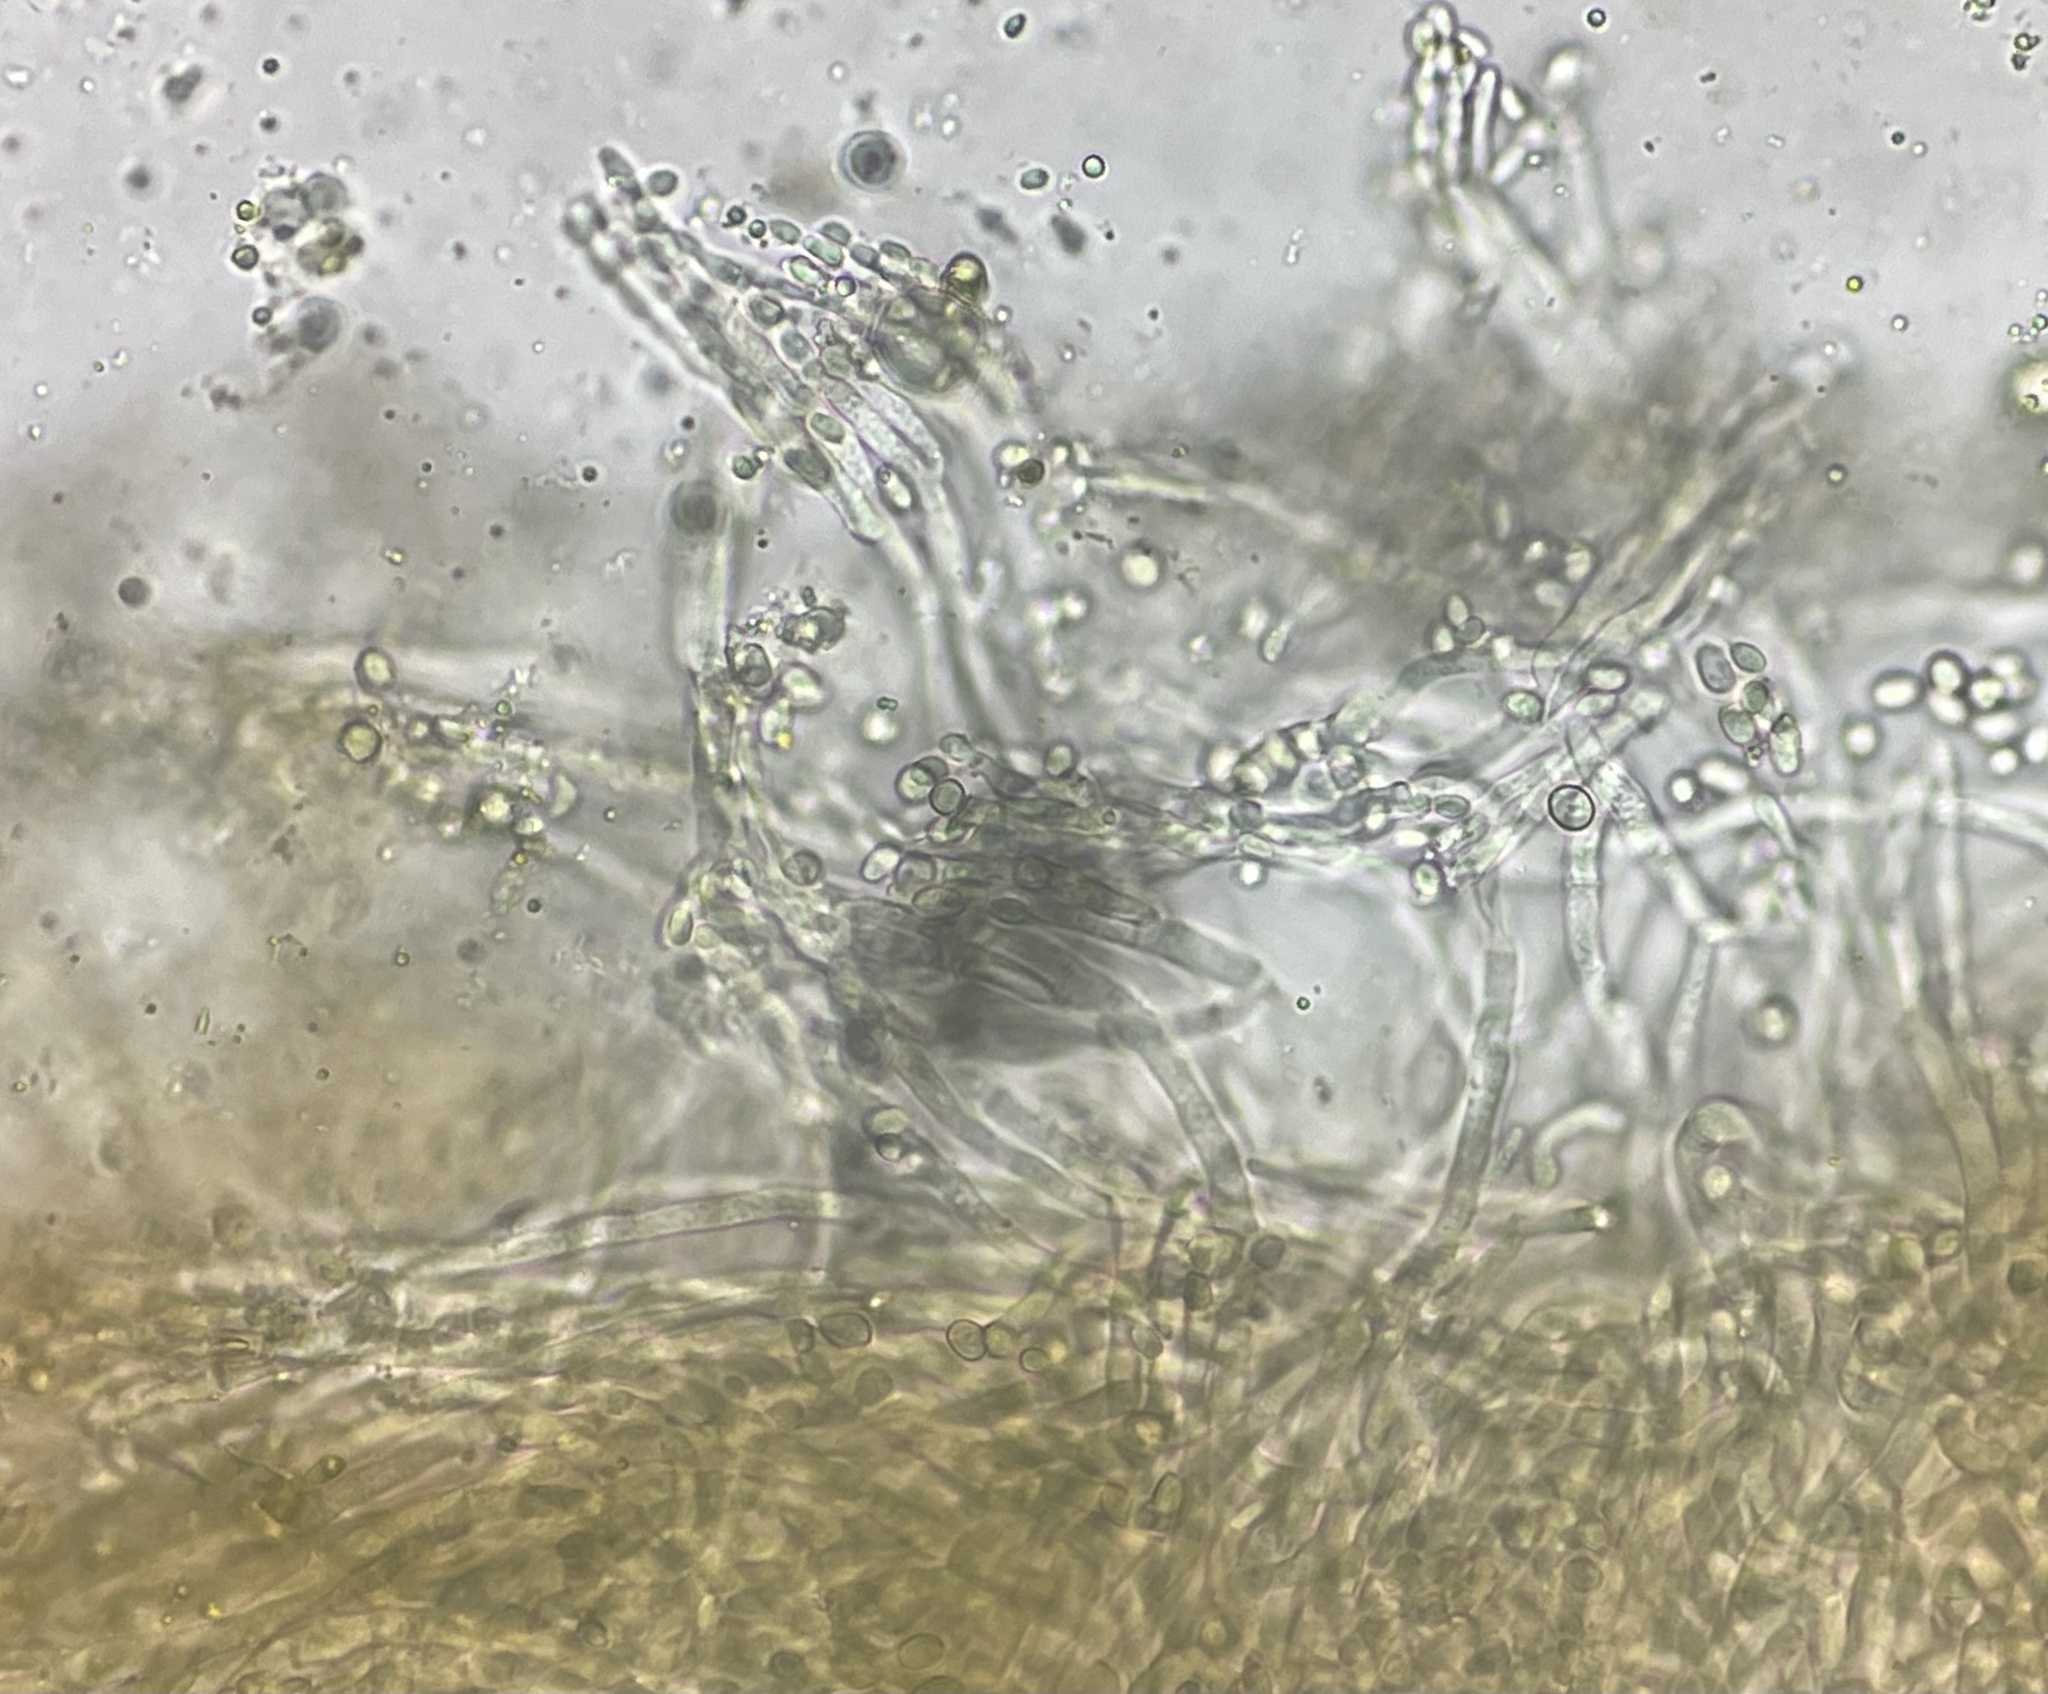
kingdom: Fungi
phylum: Ascomycota
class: Eurotiomycetes
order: Eurotiales
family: Aspergillaceae
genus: Penicillium
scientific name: Penicillium digitatum
